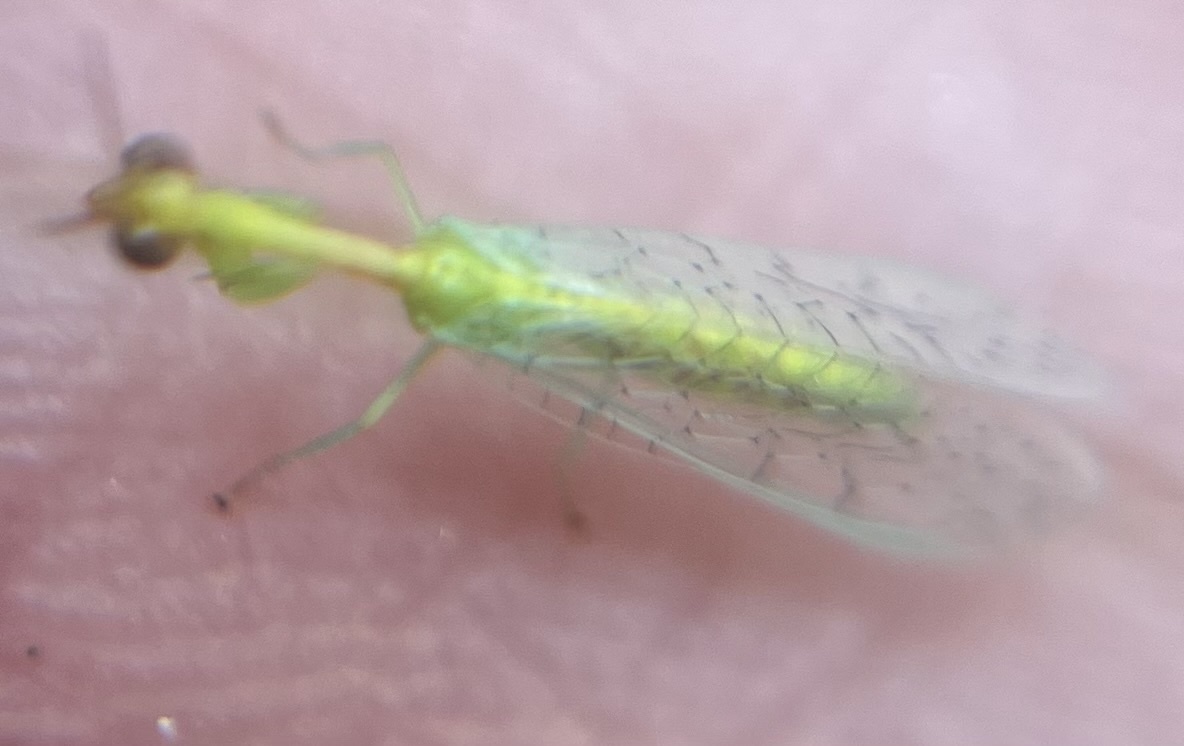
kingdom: Animalia
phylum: Arthropoda
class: Insecta
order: Neuroptera
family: Mantispidae
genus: Zeugomantispa
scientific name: Zeugomantispa minuta
